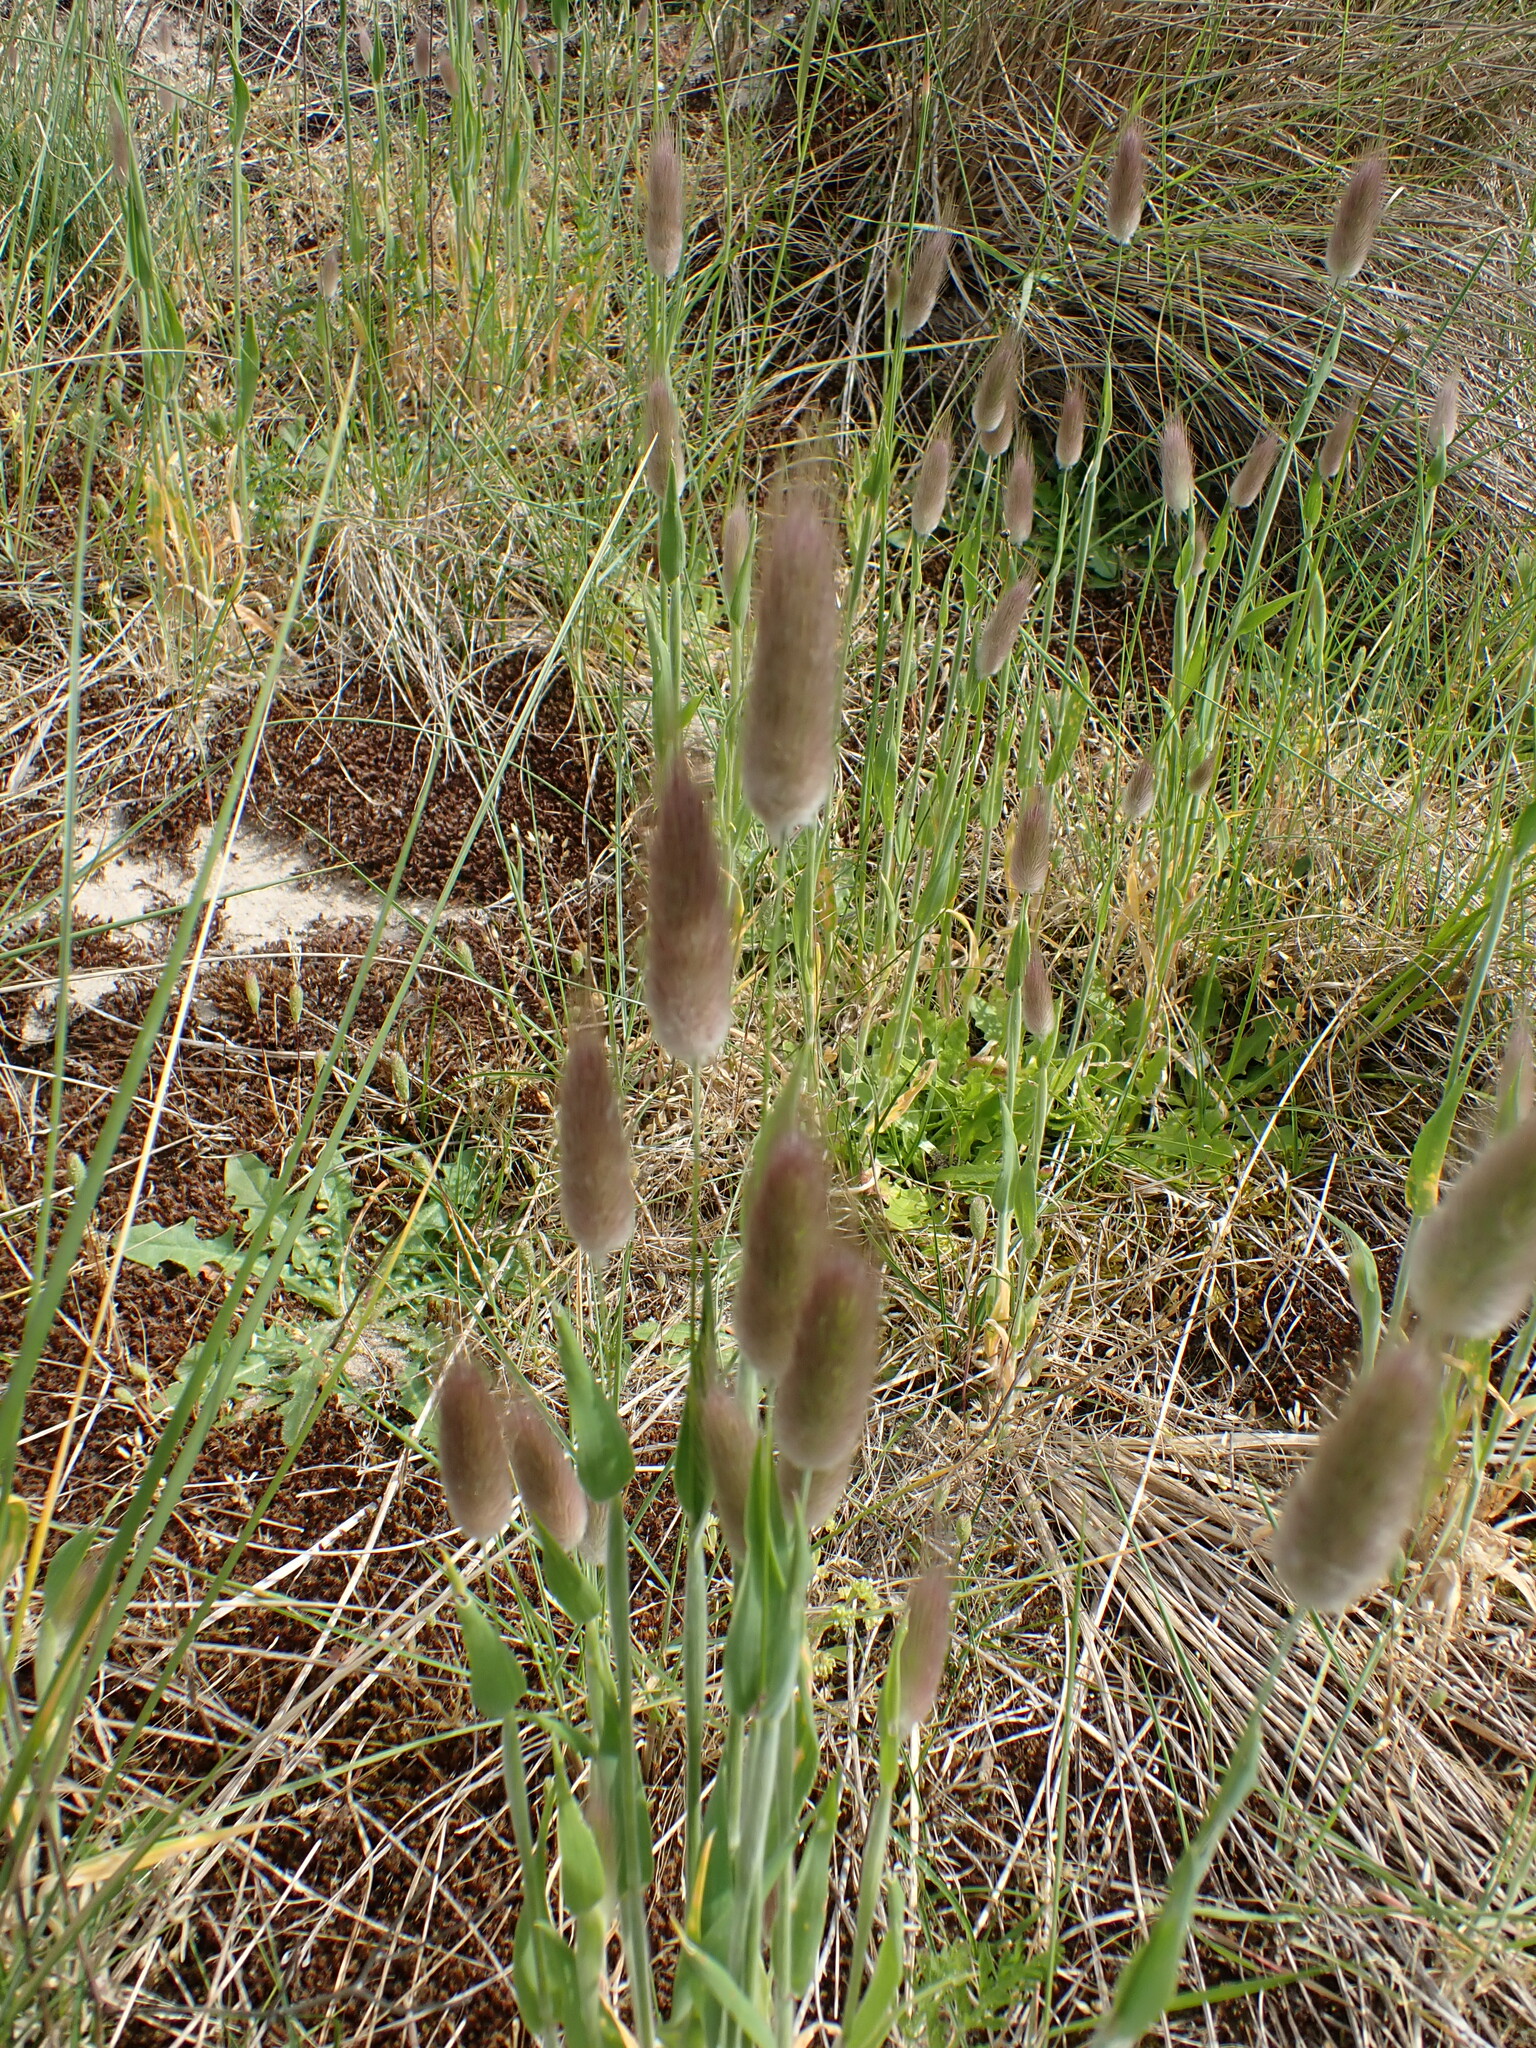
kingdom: Plantae
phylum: Tracheophyta
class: Liliopsida
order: Poales
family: Poaceae
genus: Lagurus
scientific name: Lagurus ovatus
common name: Hare's-tail
